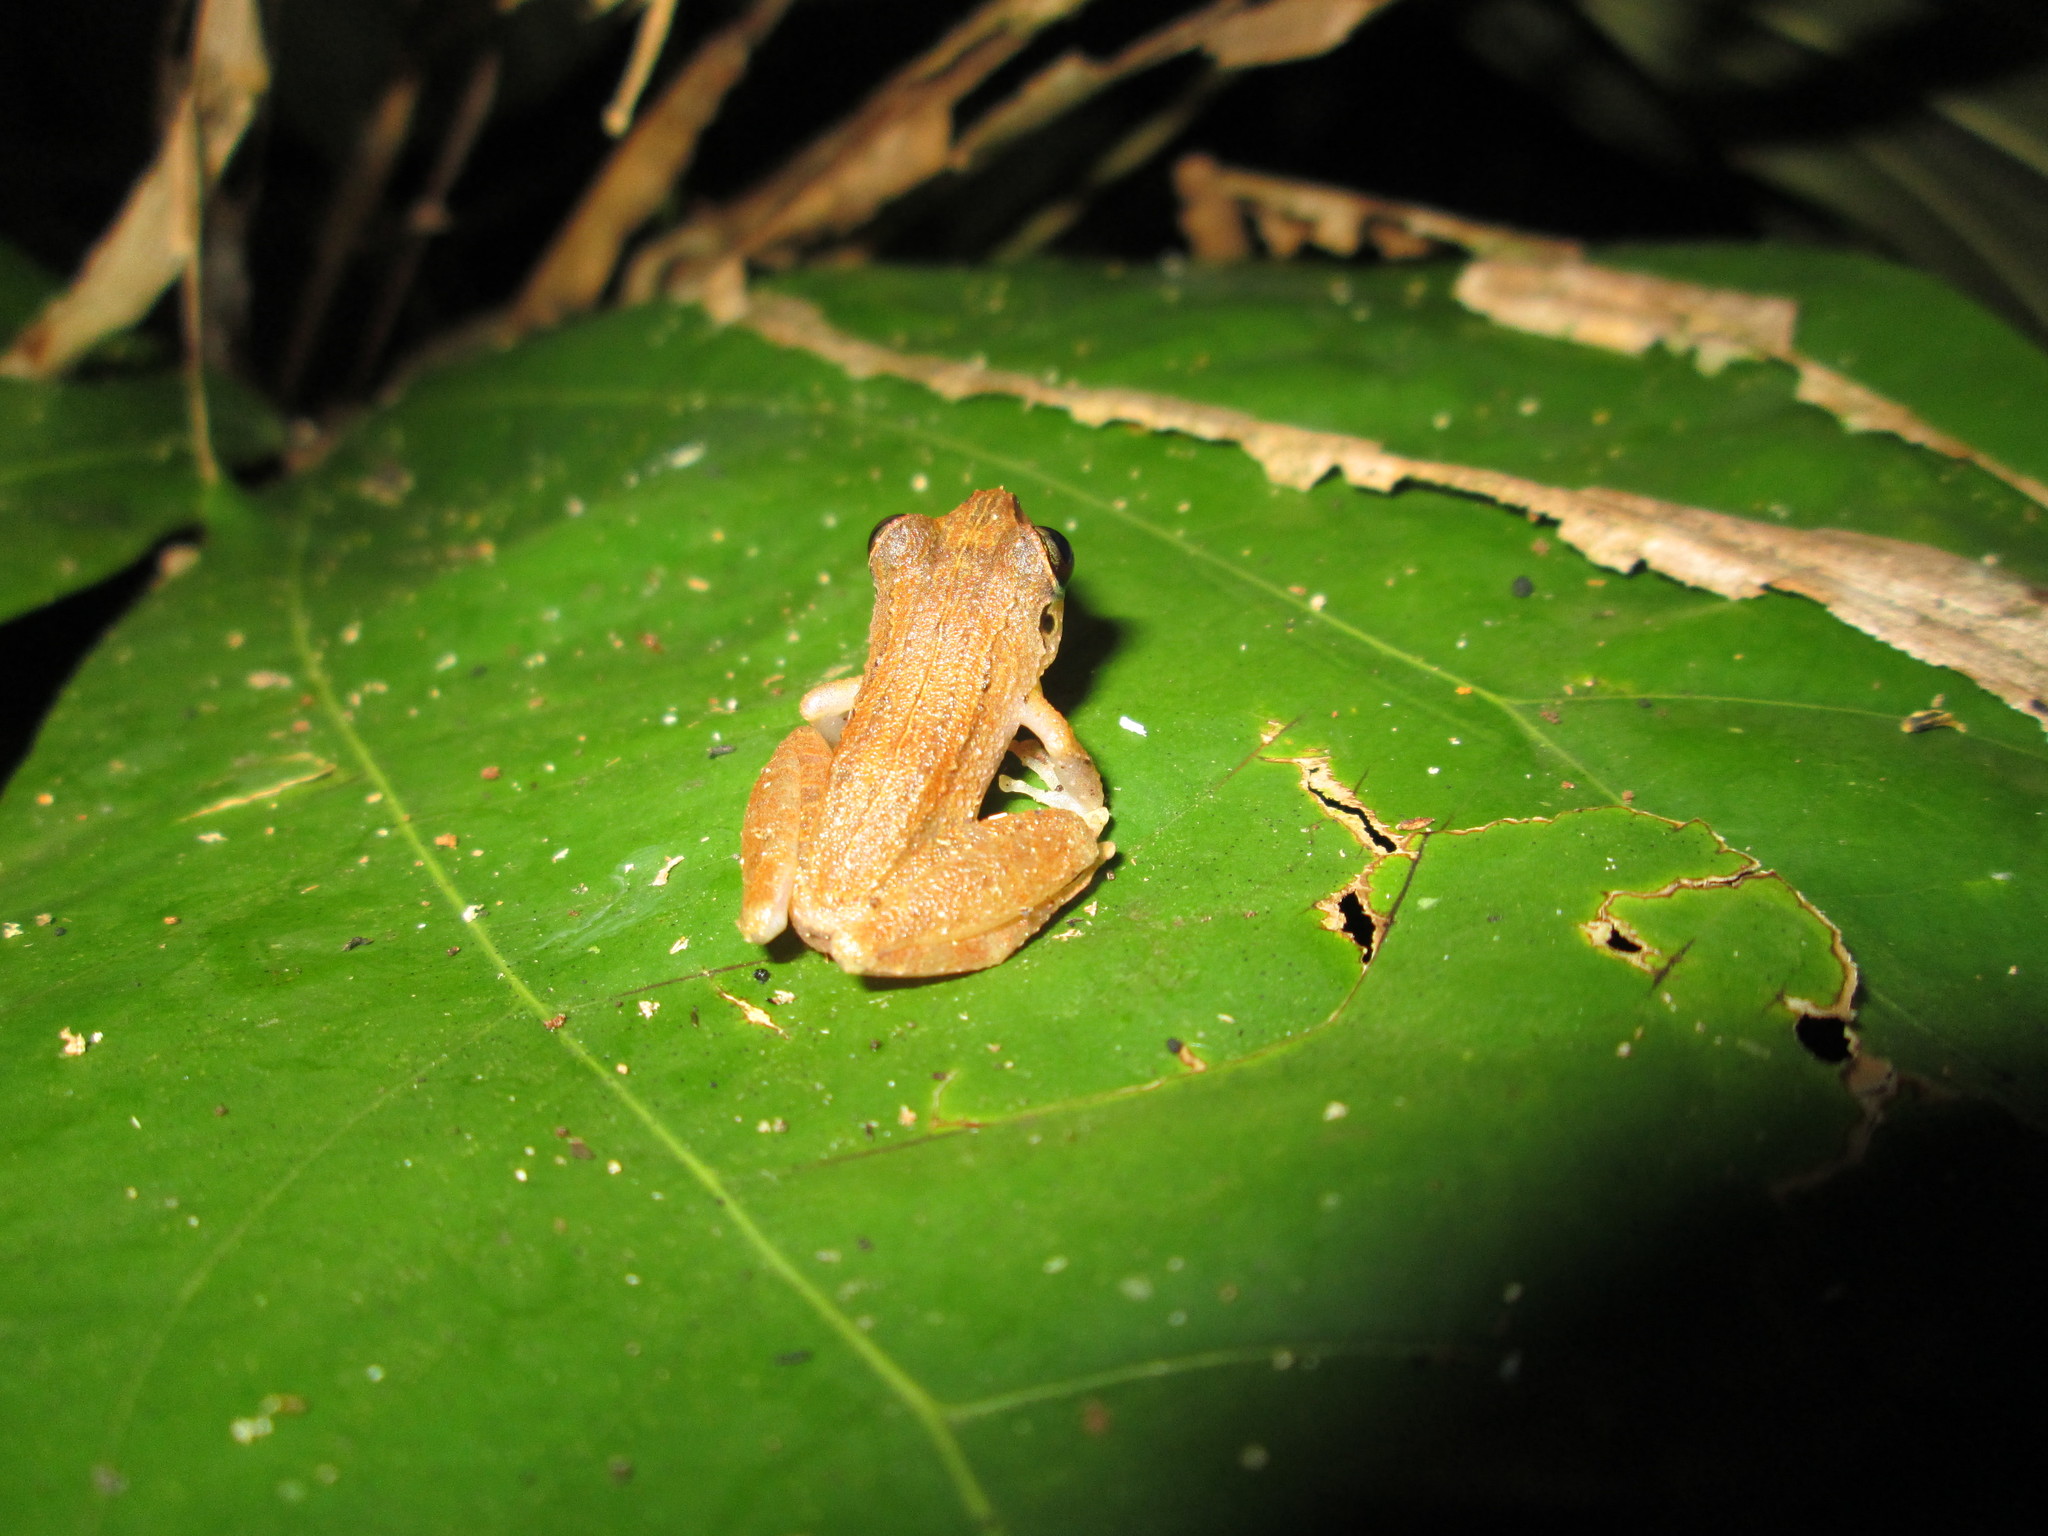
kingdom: Animalia
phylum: Chordata
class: Amphibia
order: Anura
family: Craugastoridae
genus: Pristimantis
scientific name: Pristimantis lanthanites
